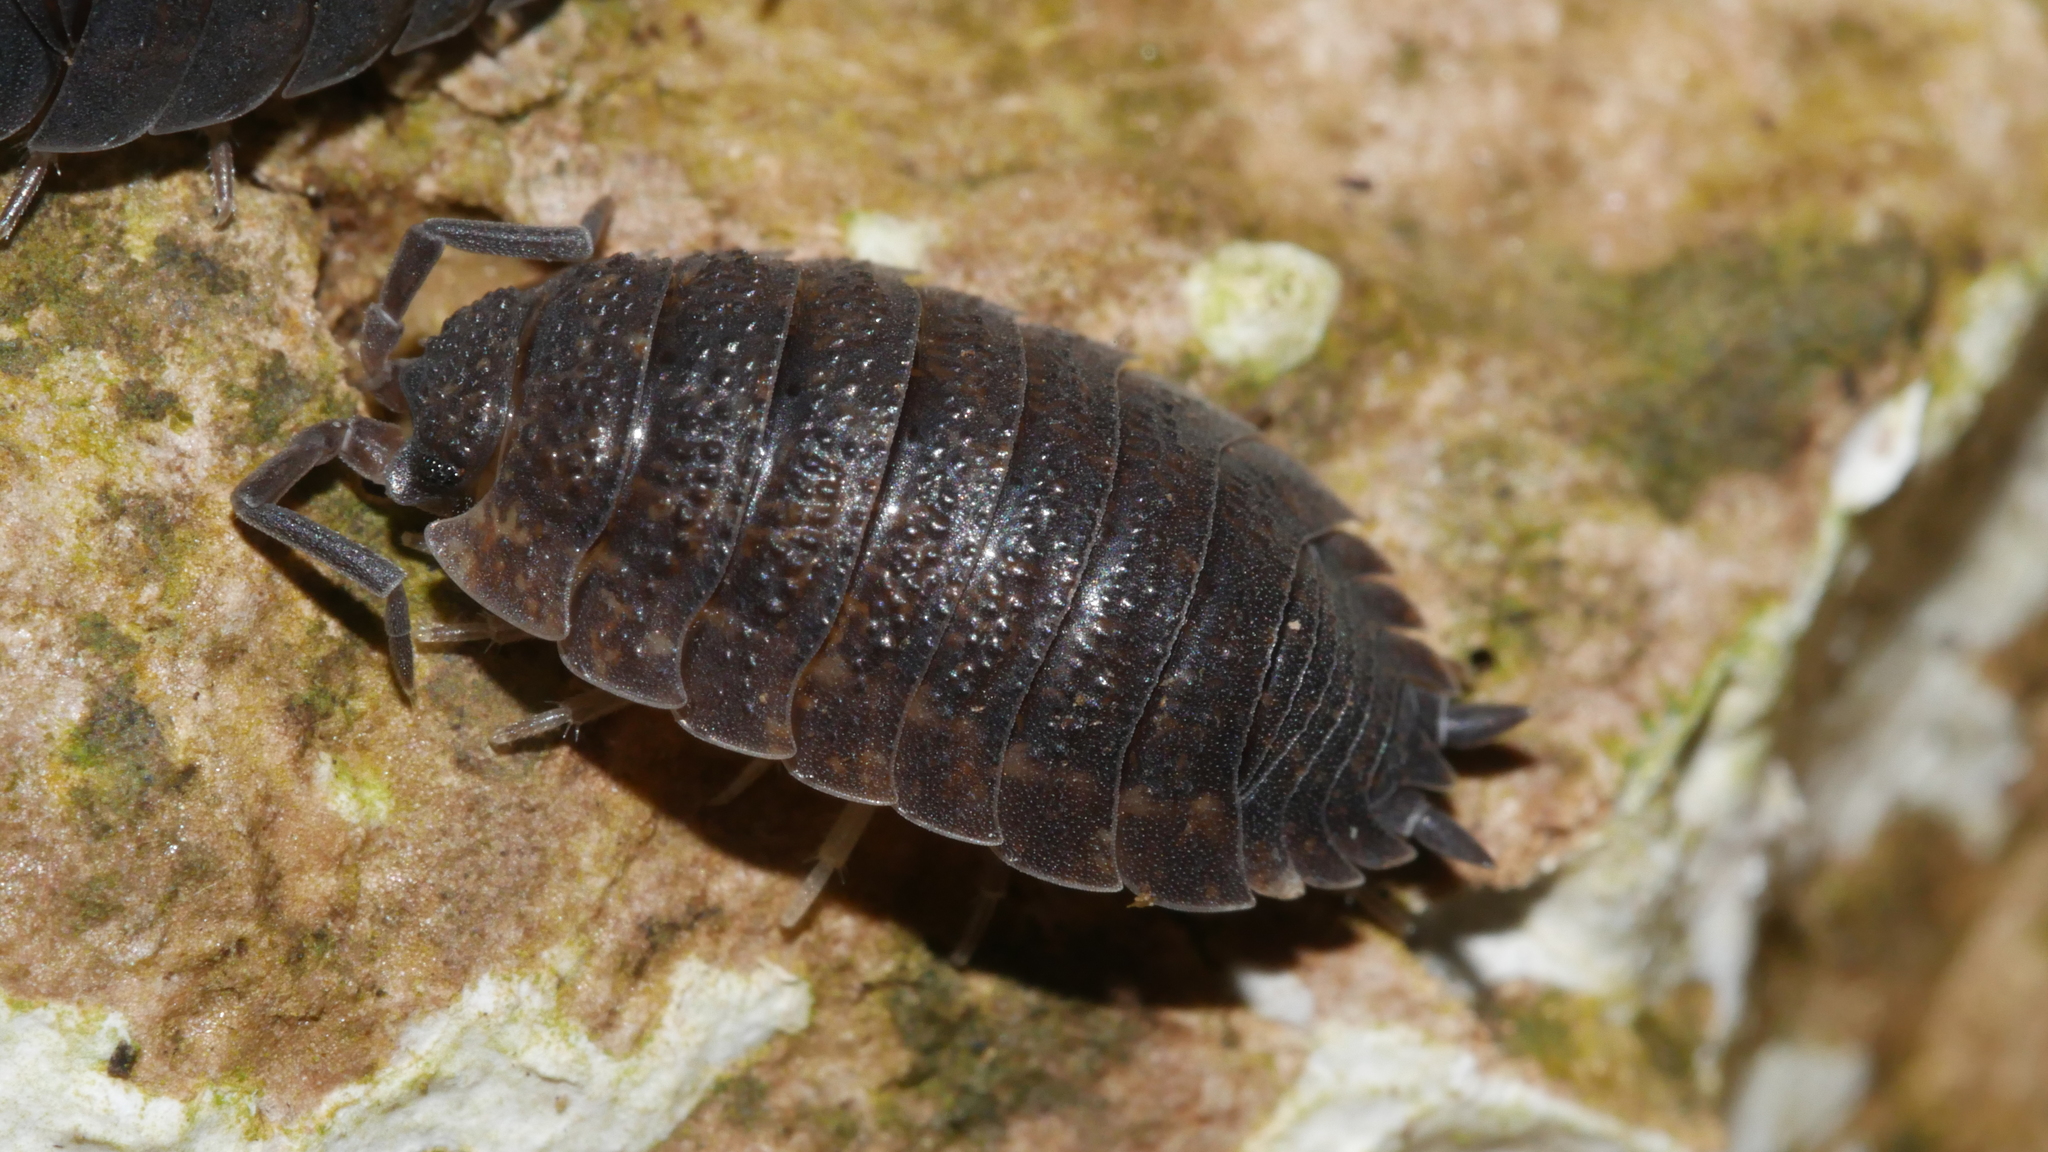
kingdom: Animalia
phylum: Arthropoda
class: Malacostraca
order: Isopoda
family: Porcellionidae
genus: Porcellio
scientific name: Porcellio scaber
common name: Common rough woodlouse
